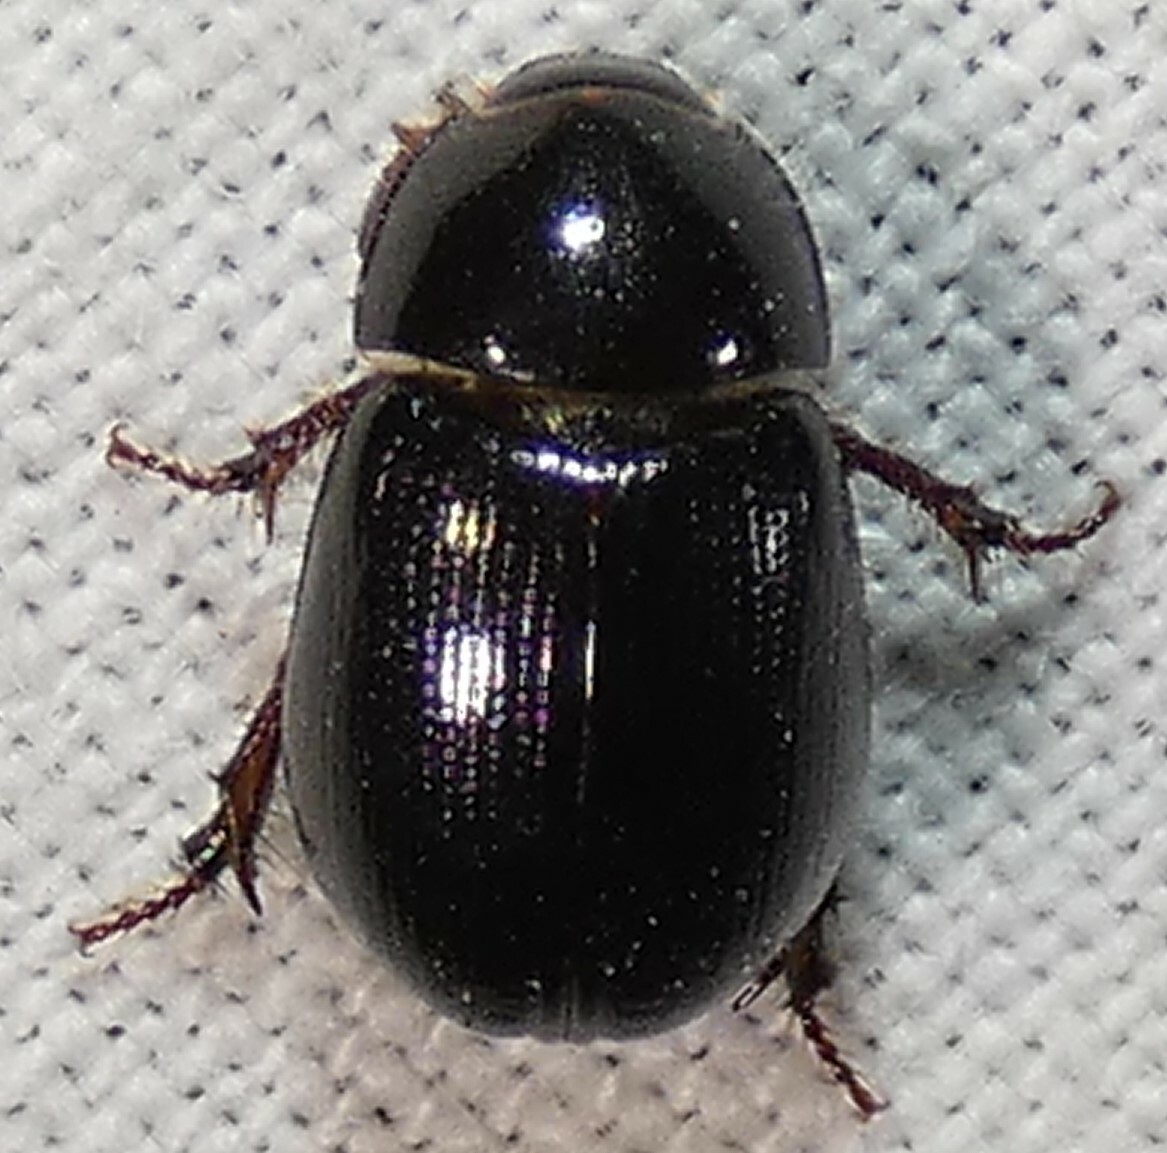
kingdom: Animalia
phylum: Arthropoda
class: Insecta
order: Coleoptera
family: Hybosoridae
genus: Hybosorus
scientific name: Hybosorus illigeri
